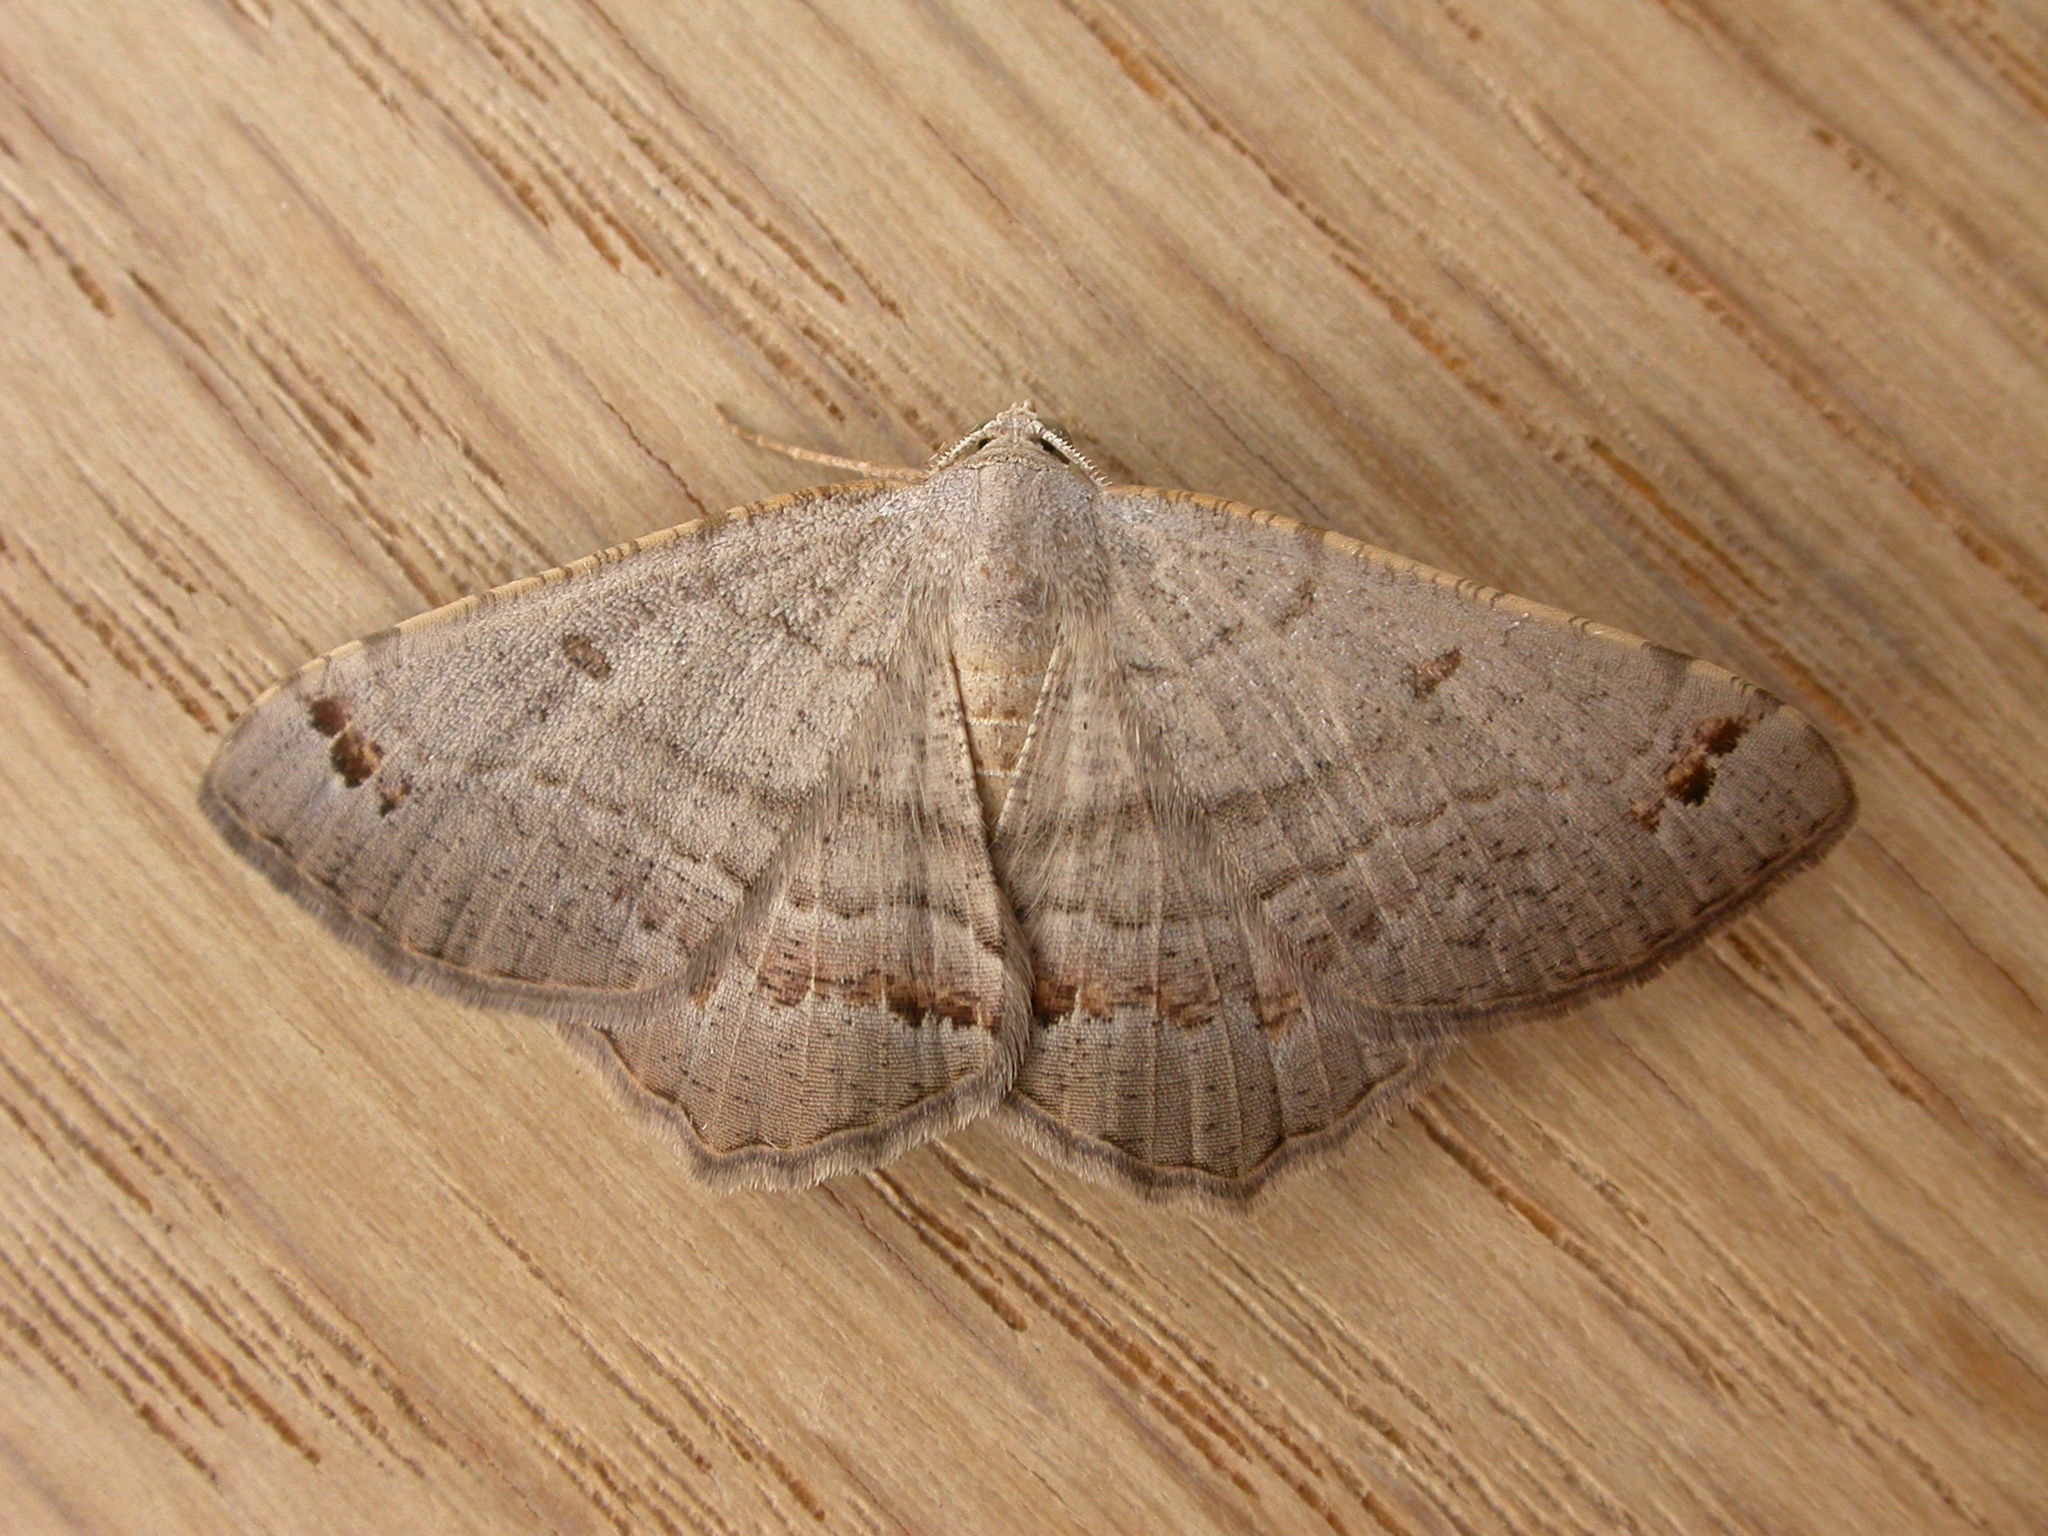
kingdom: Animalia
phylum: Arthropoda
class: Insecta
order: Lepidoptera
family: Geometridae
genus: Dissomorphia
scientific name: Dissomorphia australiaria
